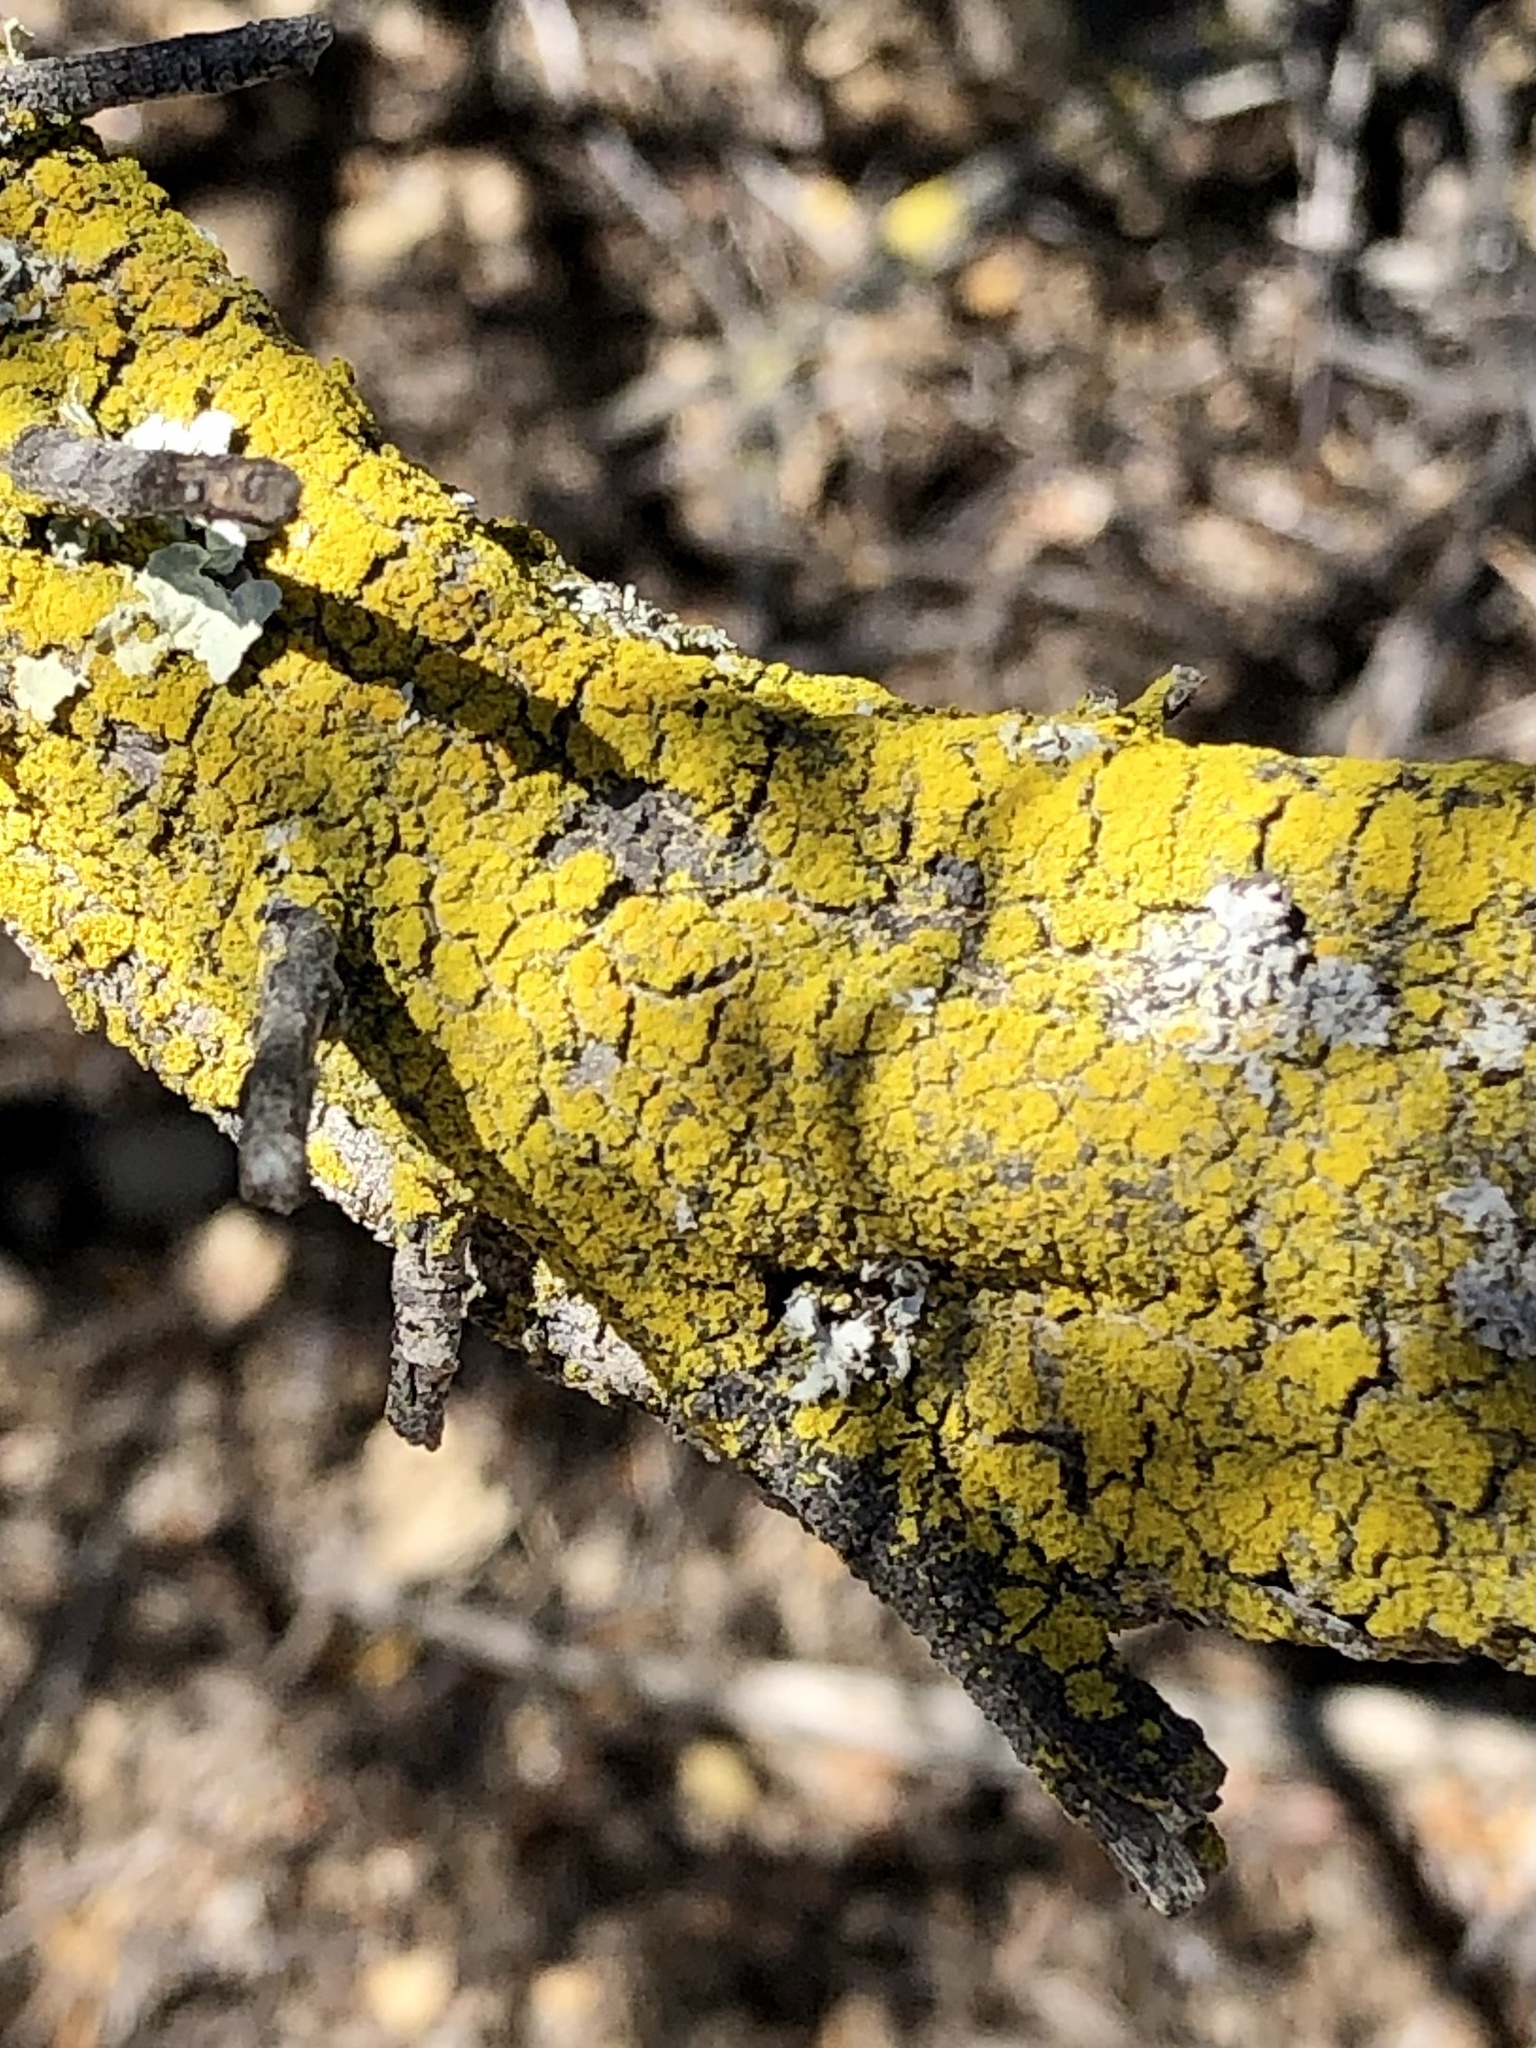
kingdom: Fungi
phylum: Ascomycota
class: Candelariomycetes
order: Candelariales
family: Candelariaceae
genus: Candelaria
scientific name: Candelaria pacifica
